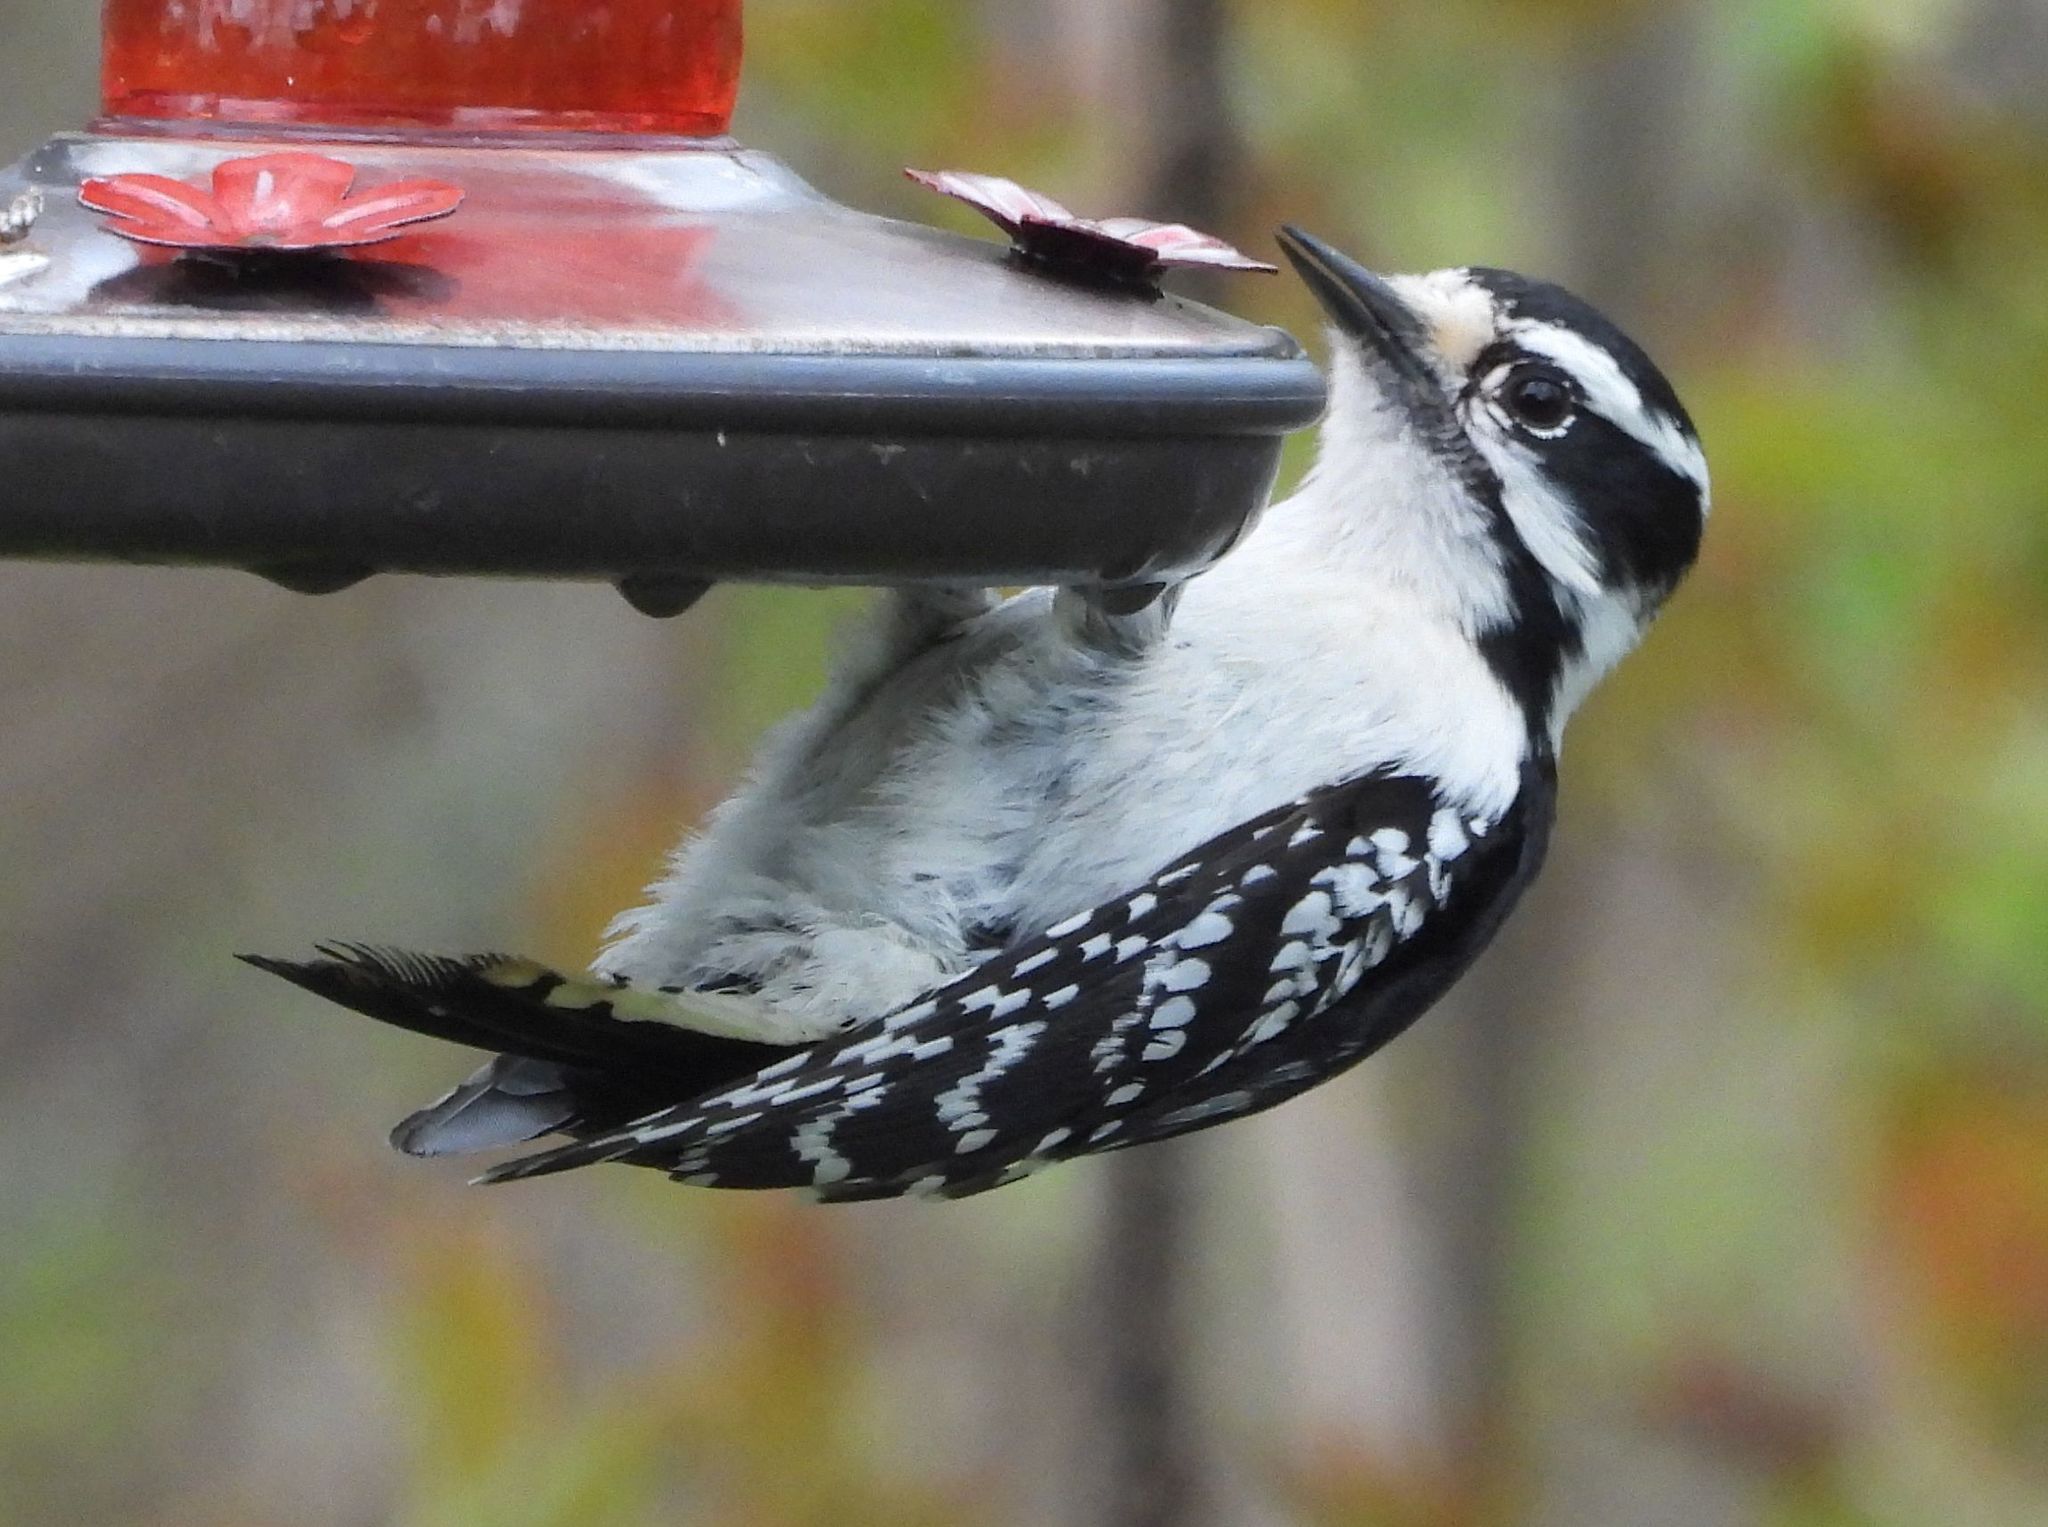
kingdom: Animalia
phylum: Chordata
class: Aves
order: Piciformes
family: Picidae
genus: Dryobates
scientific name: Dryobates pubescens
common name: Downy woodpecker
